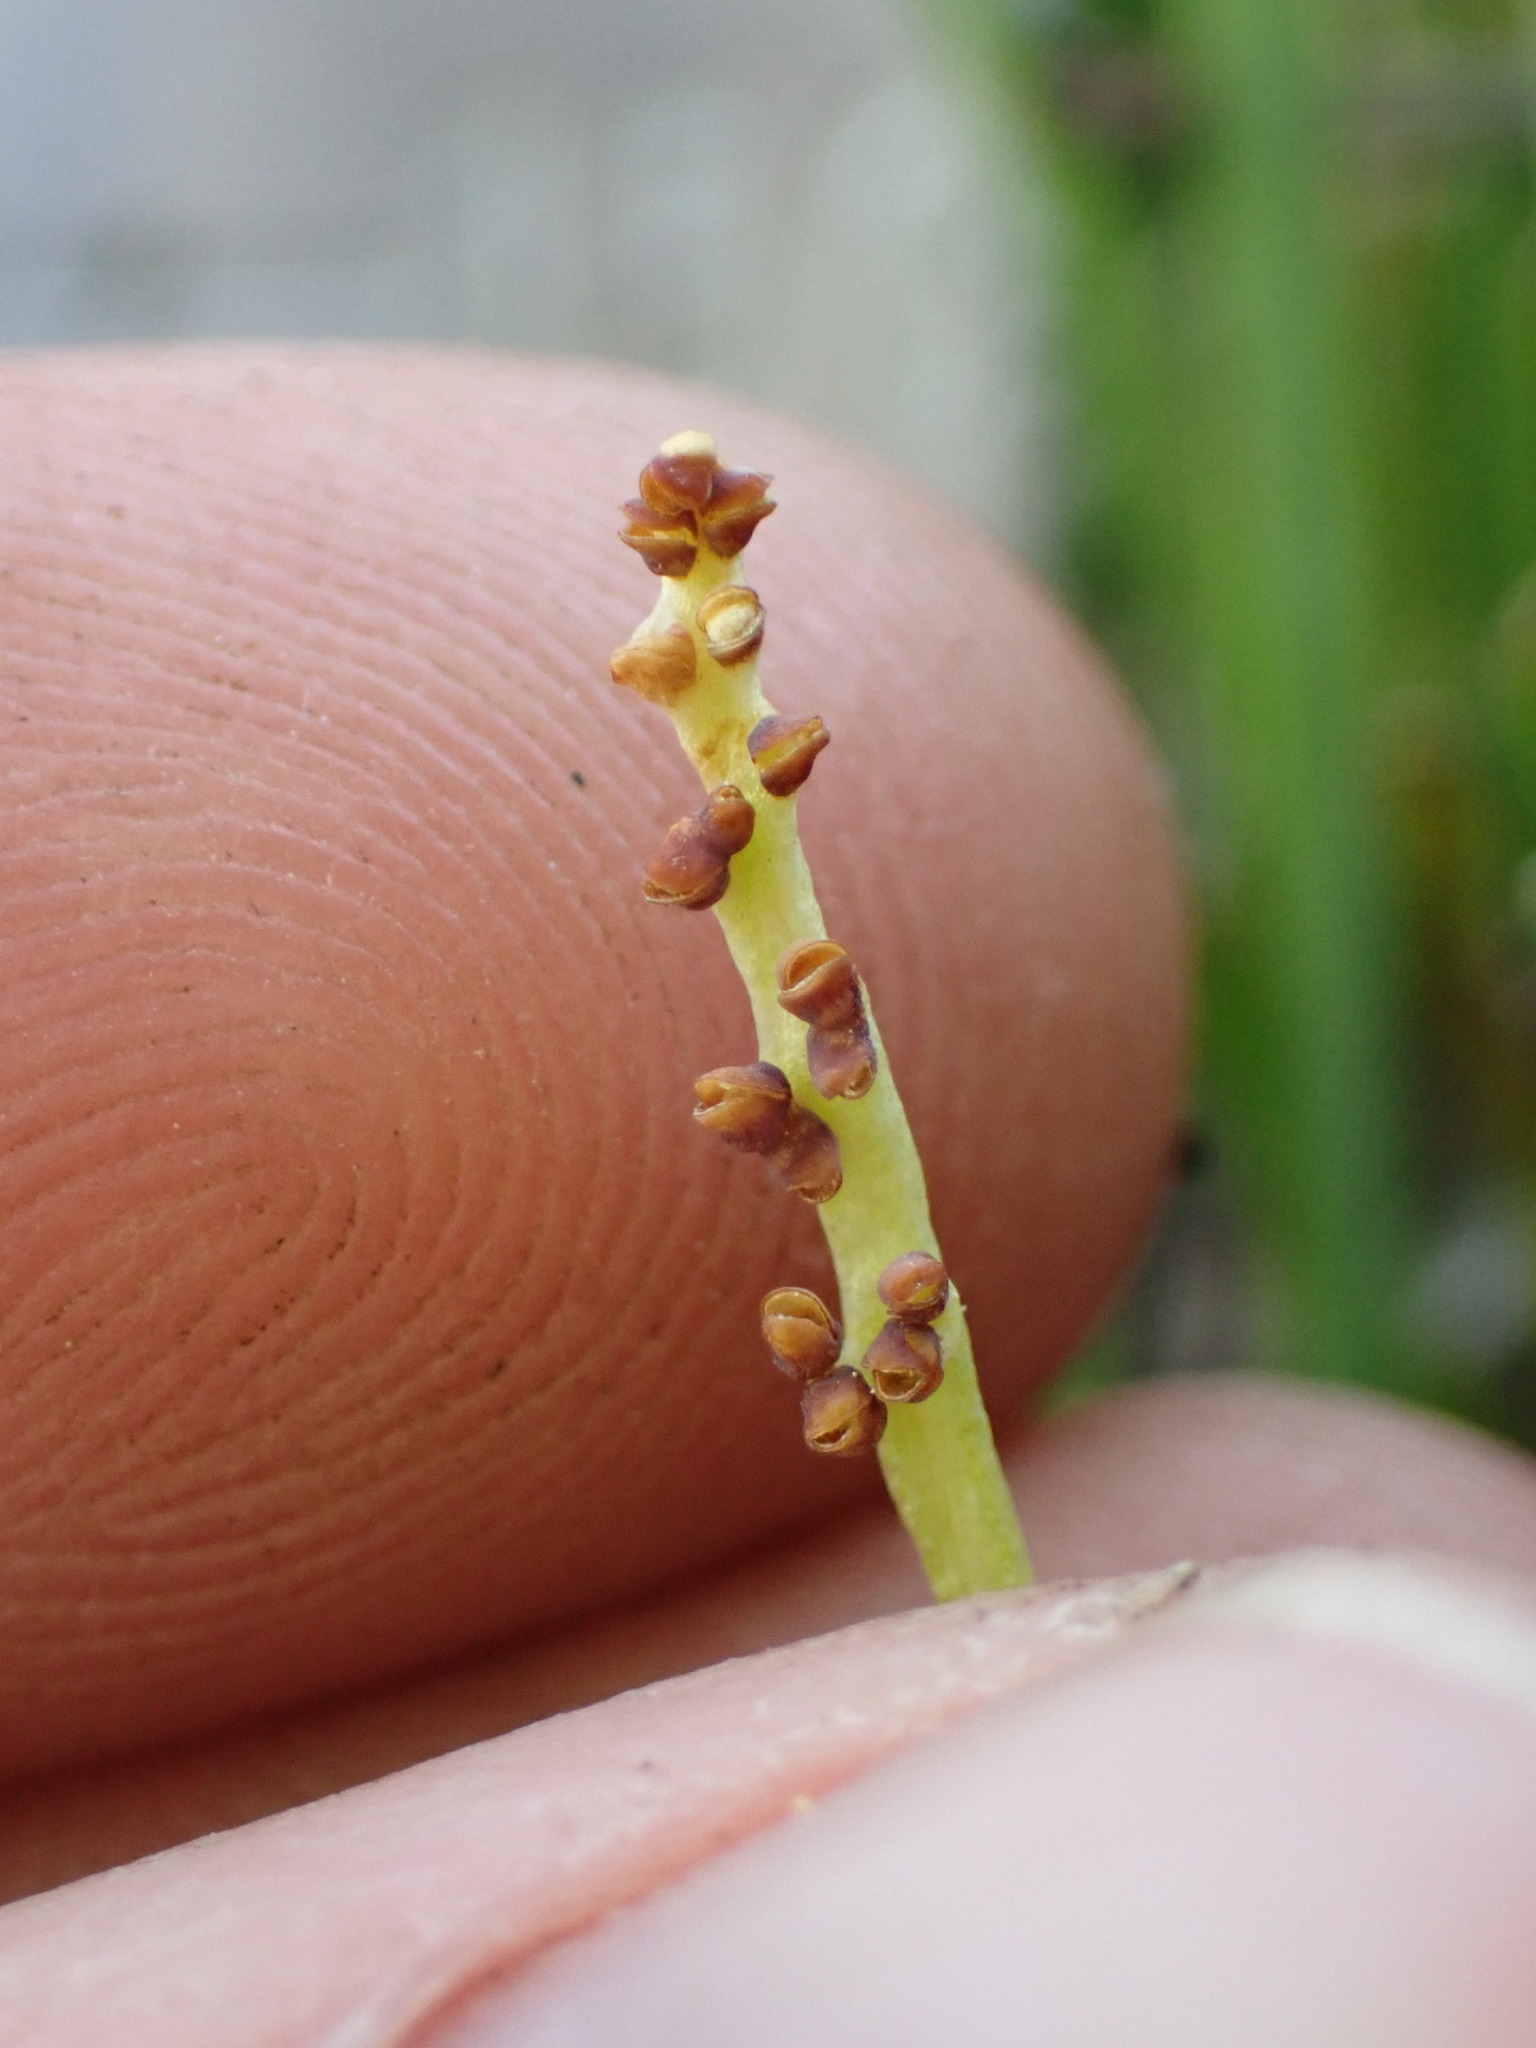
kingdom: Plantae
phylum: Tracheophyta
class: Polypodiopsida
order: Ophioglossales
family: Ophioglossaceae
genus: Botrychium
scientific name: Botrychium simplex
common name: Least moonwort
